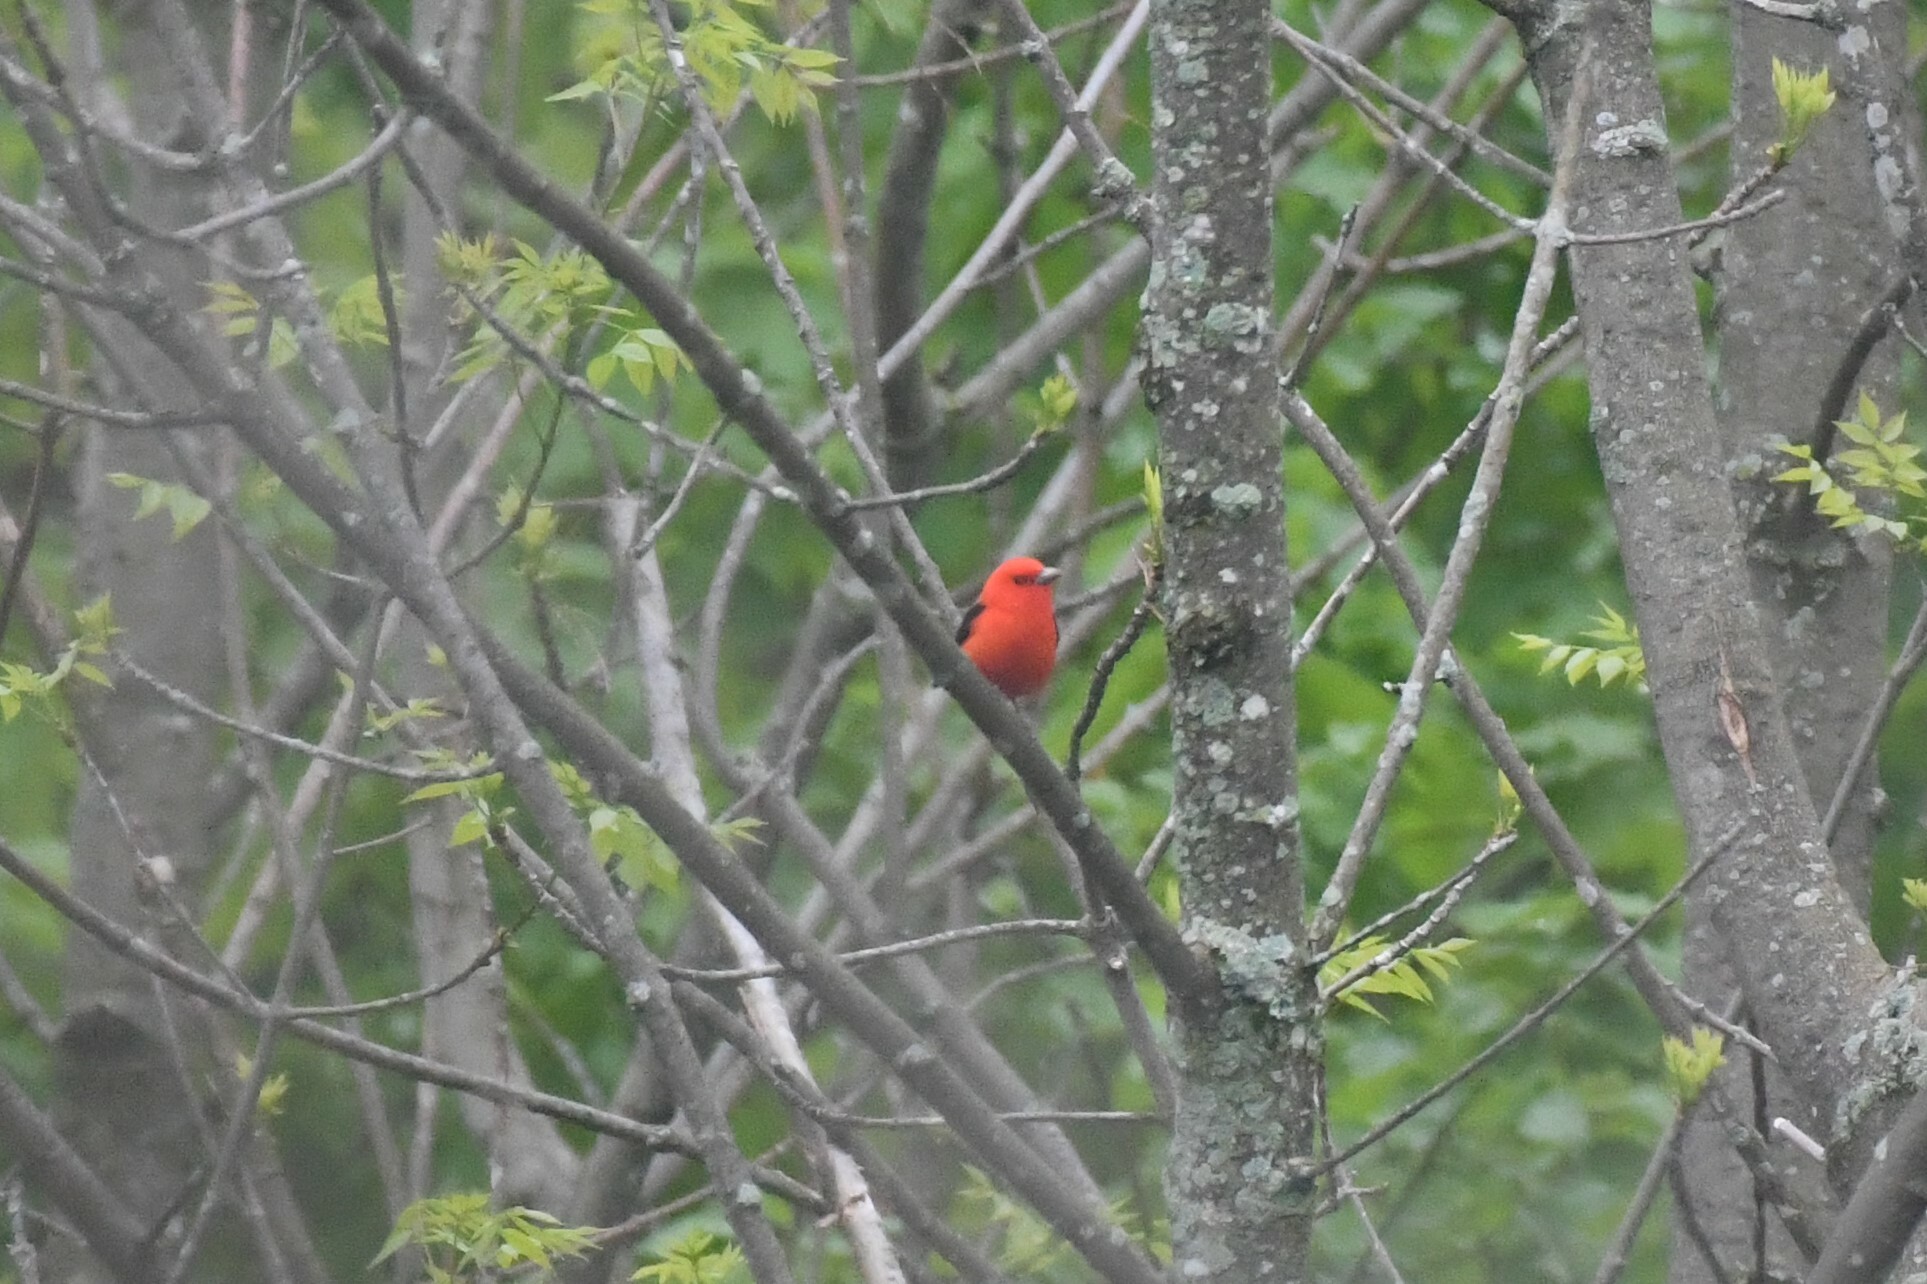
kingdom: Animalia
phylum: Chordata
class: Aves
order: Passeriformes
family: Cardinalidae
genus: Piranga
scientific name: Piranga olivacea
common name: Scarlet tanager
